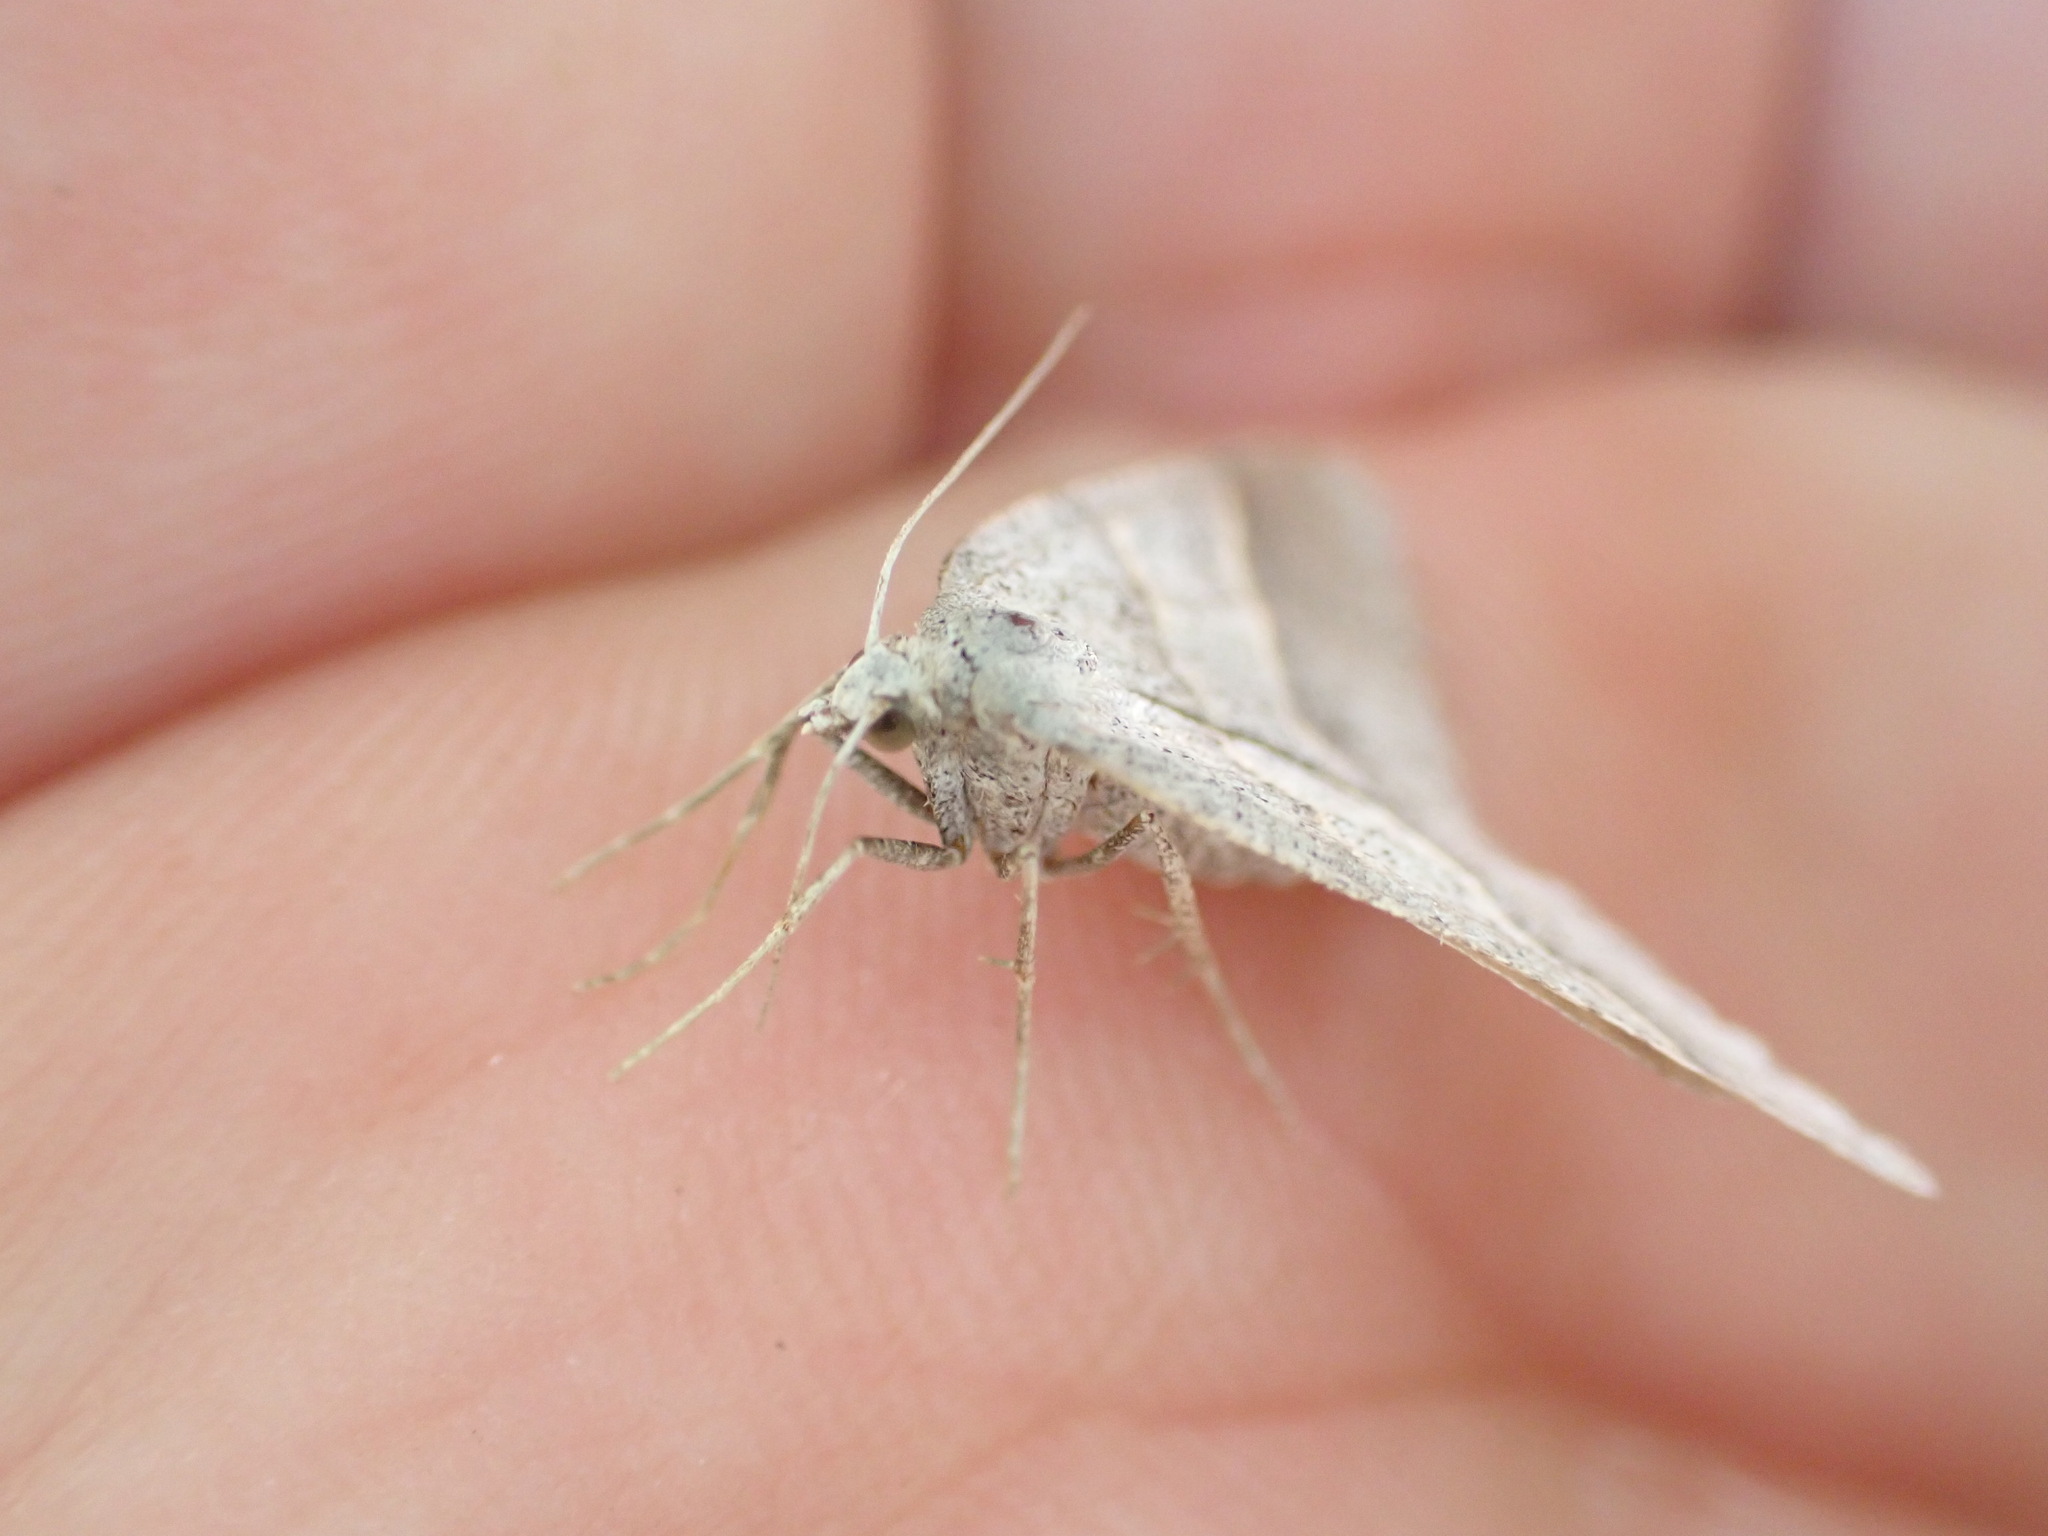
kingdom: Animalia
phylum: Arthropoda
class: Insecta
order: Lepidoptera
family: Pterophoridae
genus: Pterophorus
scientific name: Pterophorus Petrophora convergata
